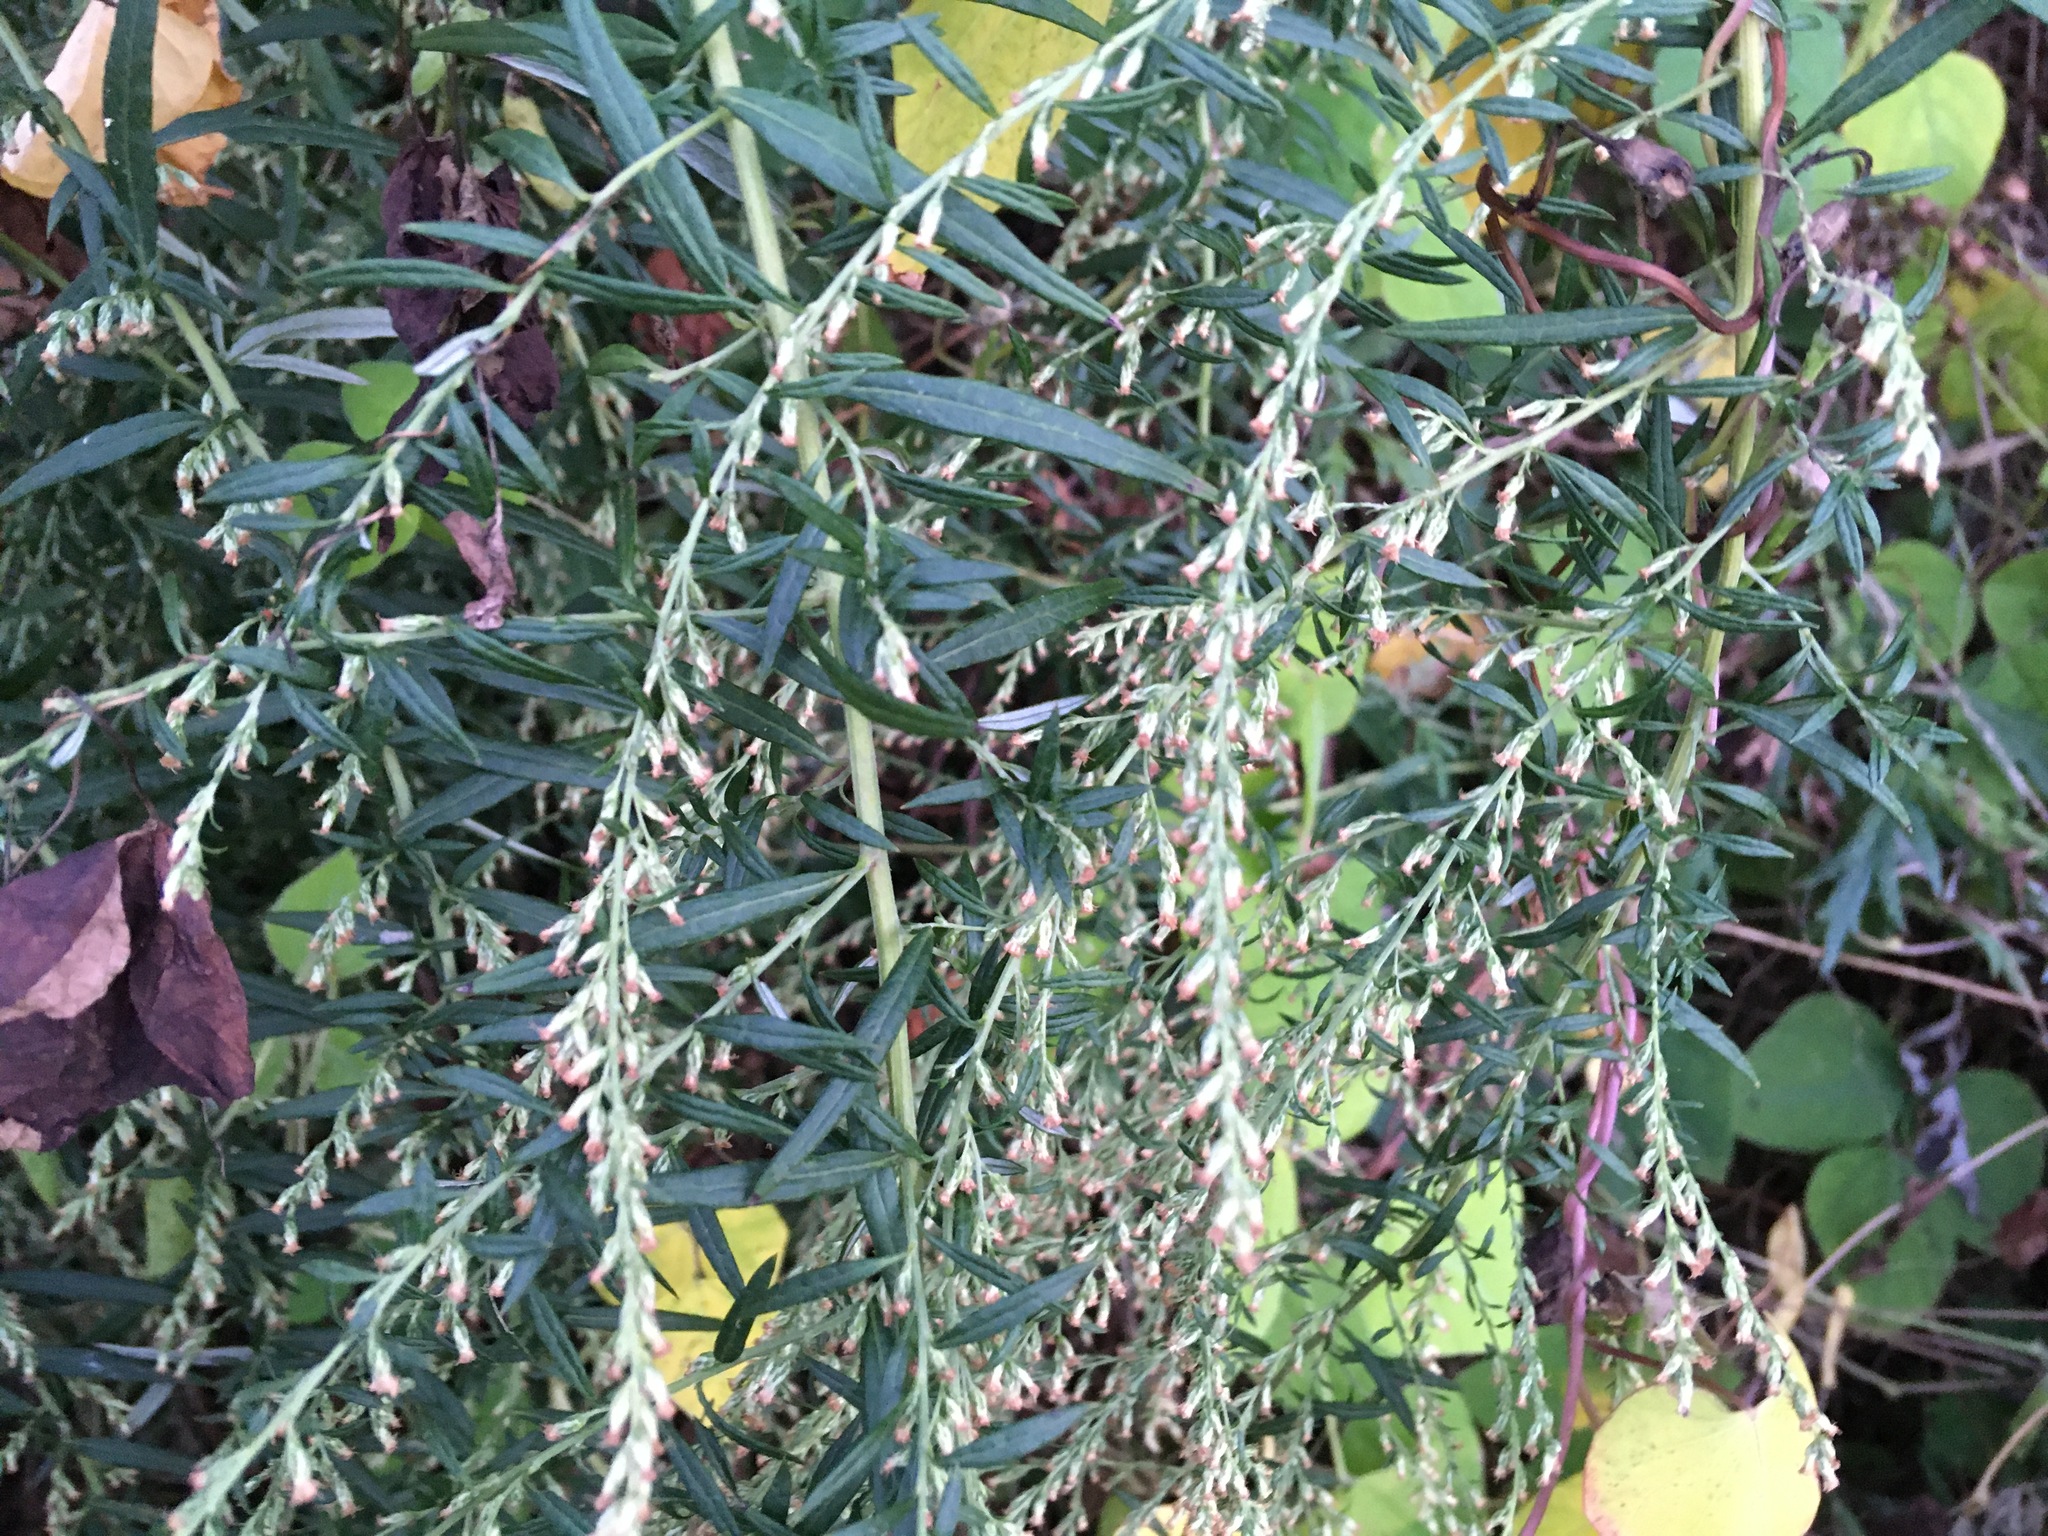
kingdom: Plantae
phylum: Tracheophyta
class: Magnoliopsida
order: Asterales
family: Asteraceae
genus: Artemisia
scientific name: Artemisia vulgaris
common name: Mugwort
